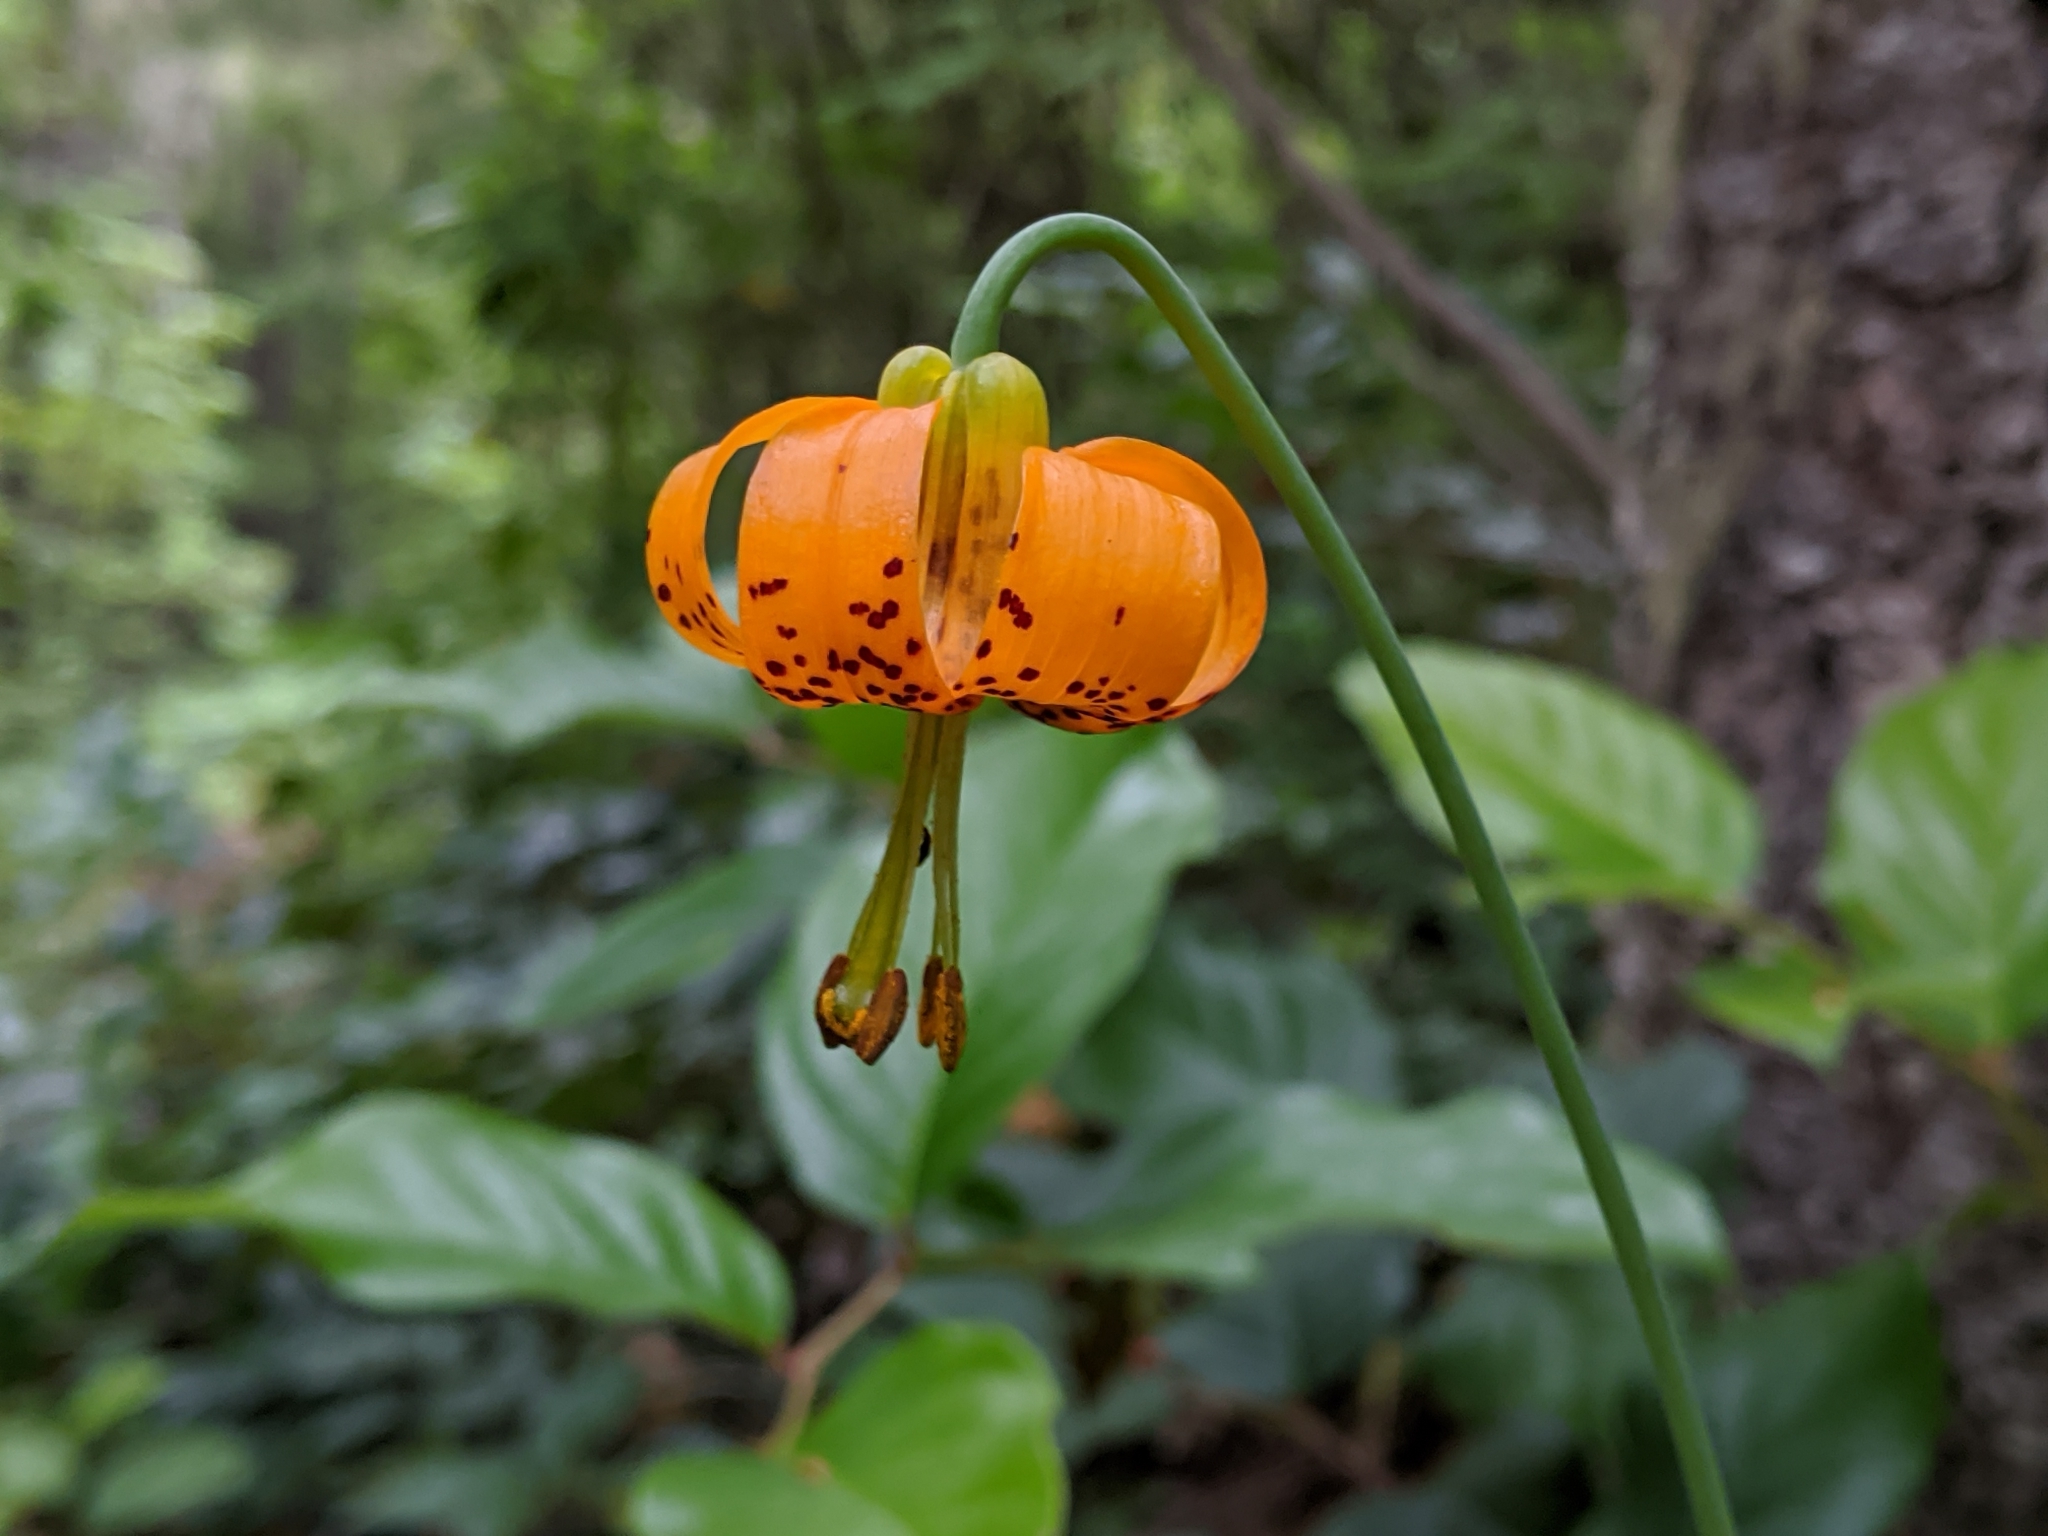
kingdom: Plantae
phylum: Tracheophyta
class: Liliopsida
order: Liliales
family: Liliaceae
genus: Lilium
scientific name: Lilium columbianum
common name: Columbia lily
